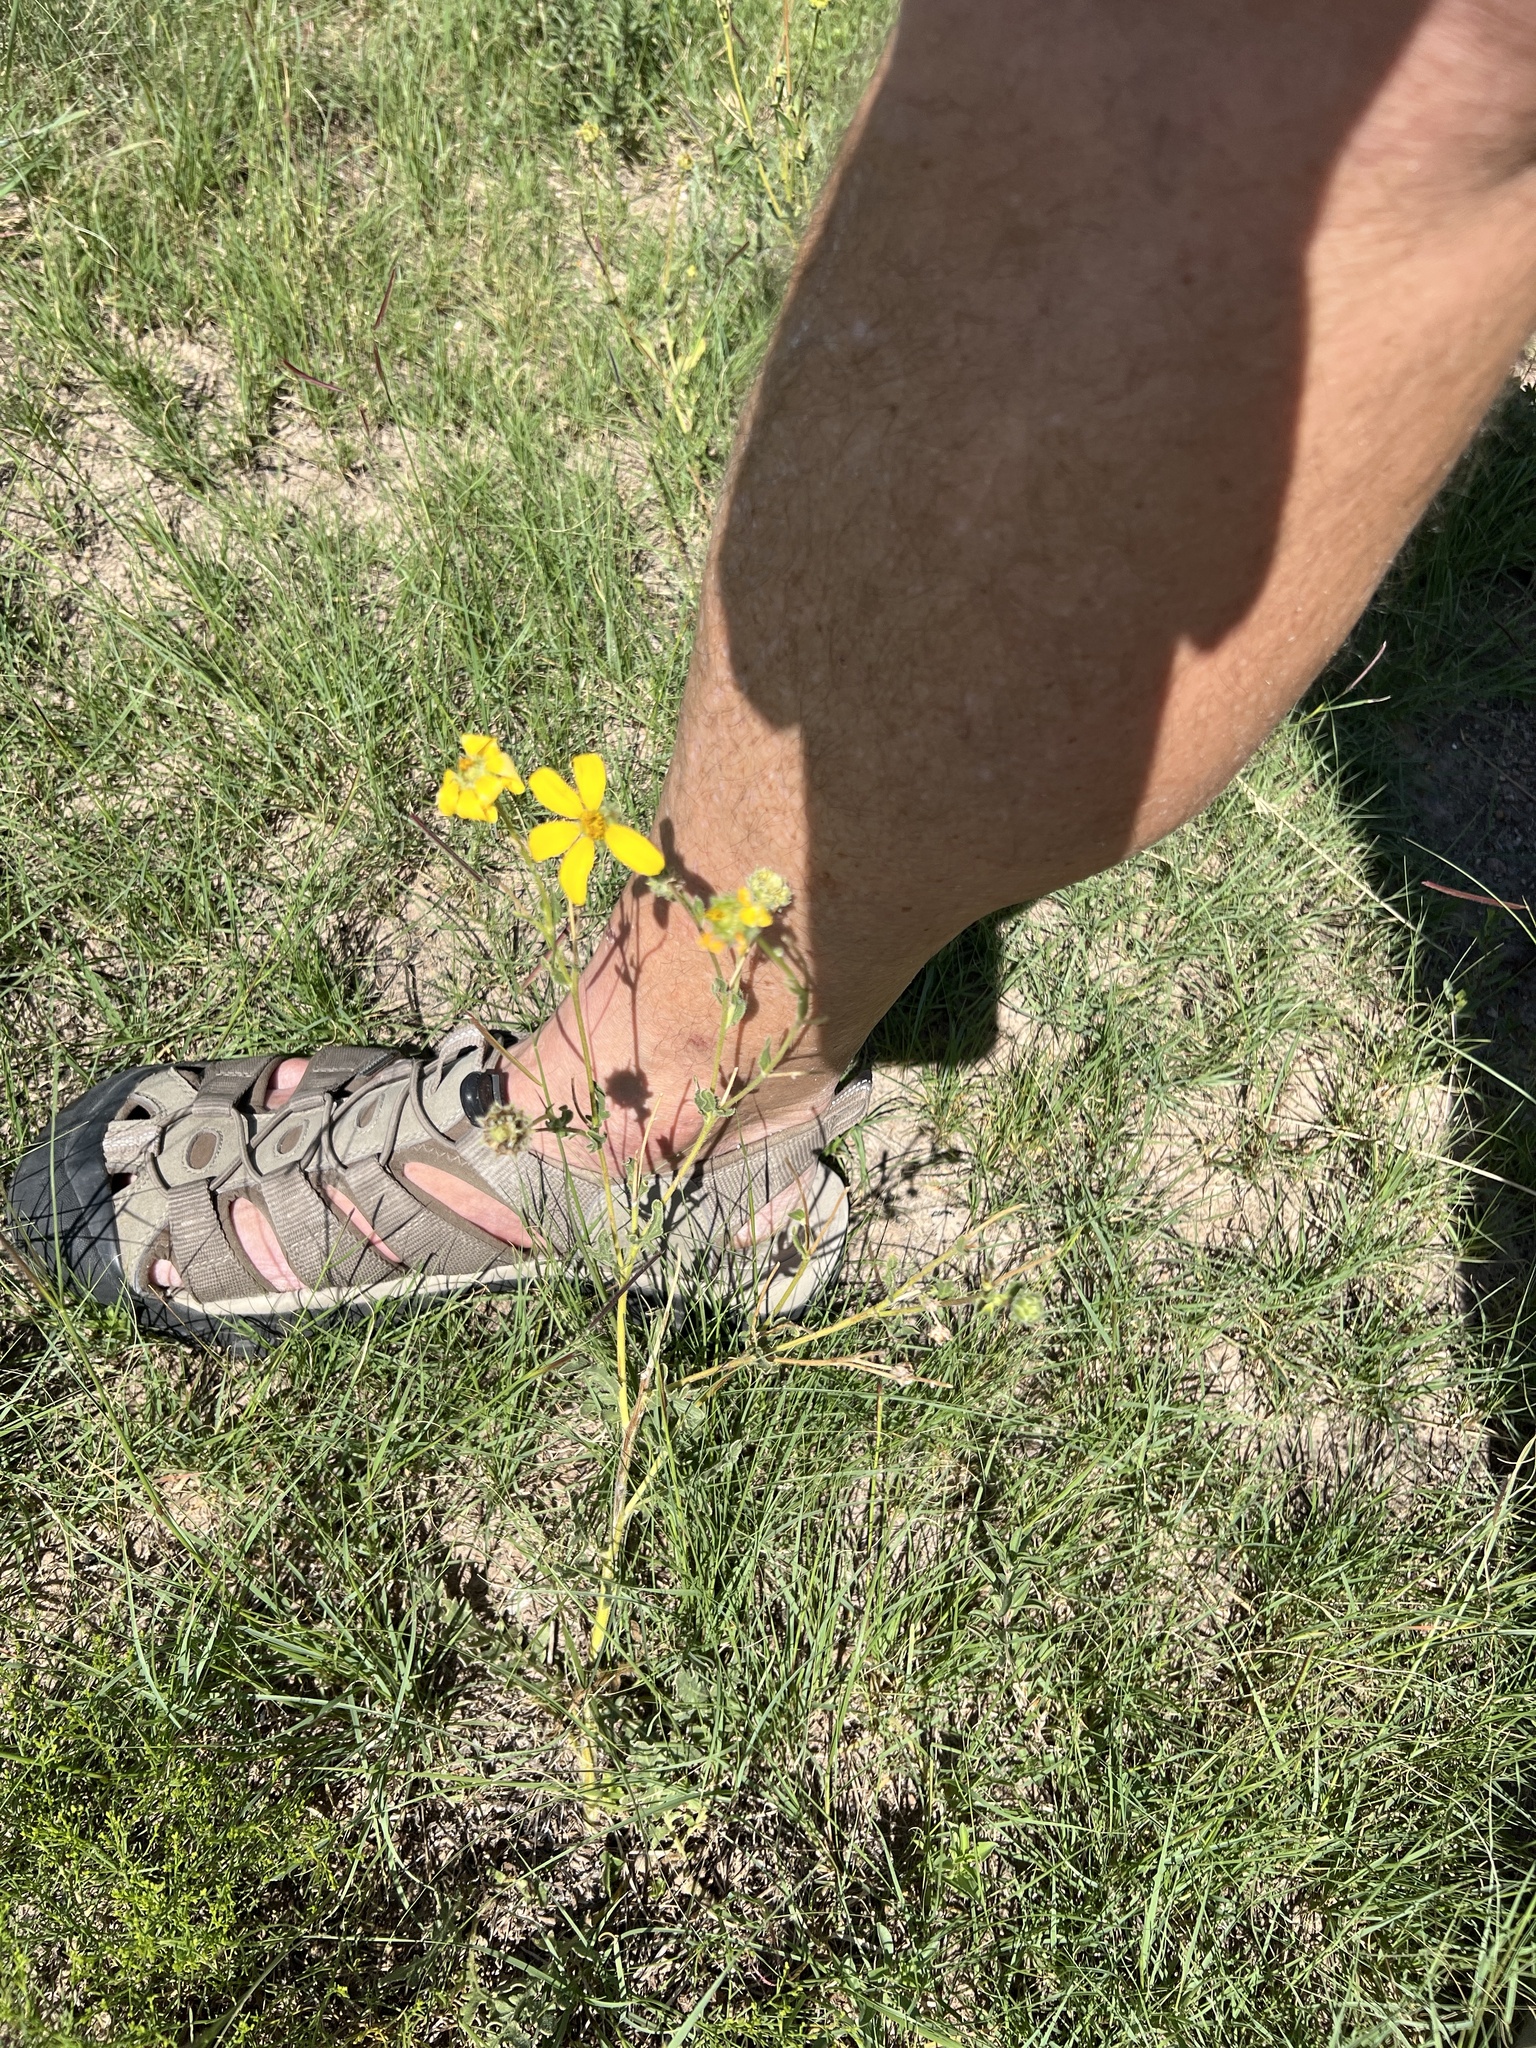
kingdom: Plantae
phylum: Tracheophyta
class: Magnoliopsida
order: Asterales
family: Asteraceae
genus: Engelmannia
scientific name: Engelmannia peristenia
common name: Engelmann's daisy
